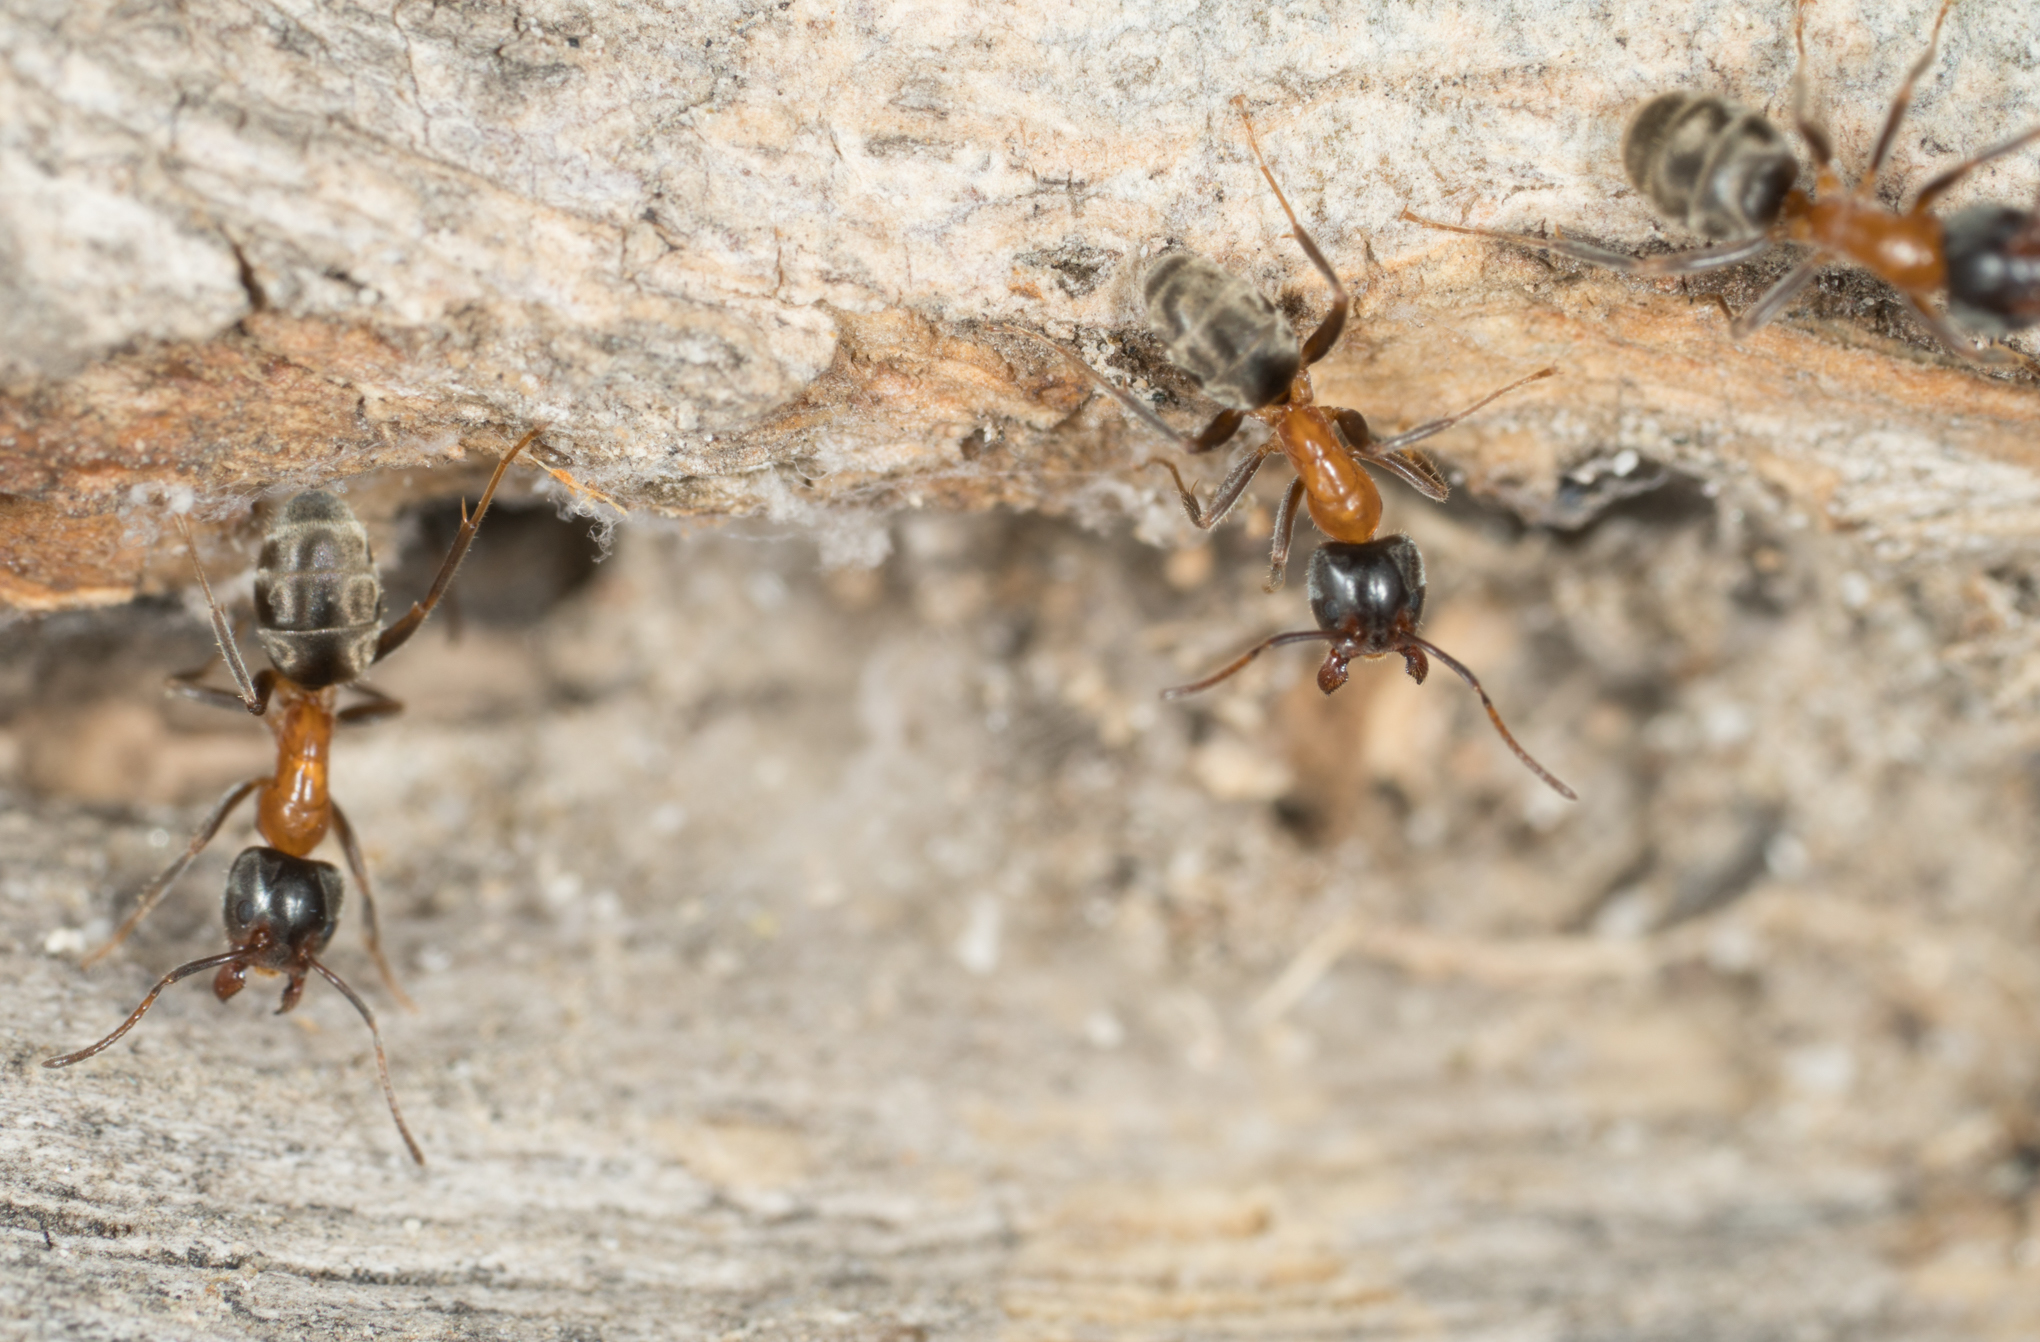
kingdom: Animalia
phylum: Arthropoda
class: Insecta
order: Hymenoptera
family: Formicidae
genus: Liometopum
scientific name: Liometopum occidentale
